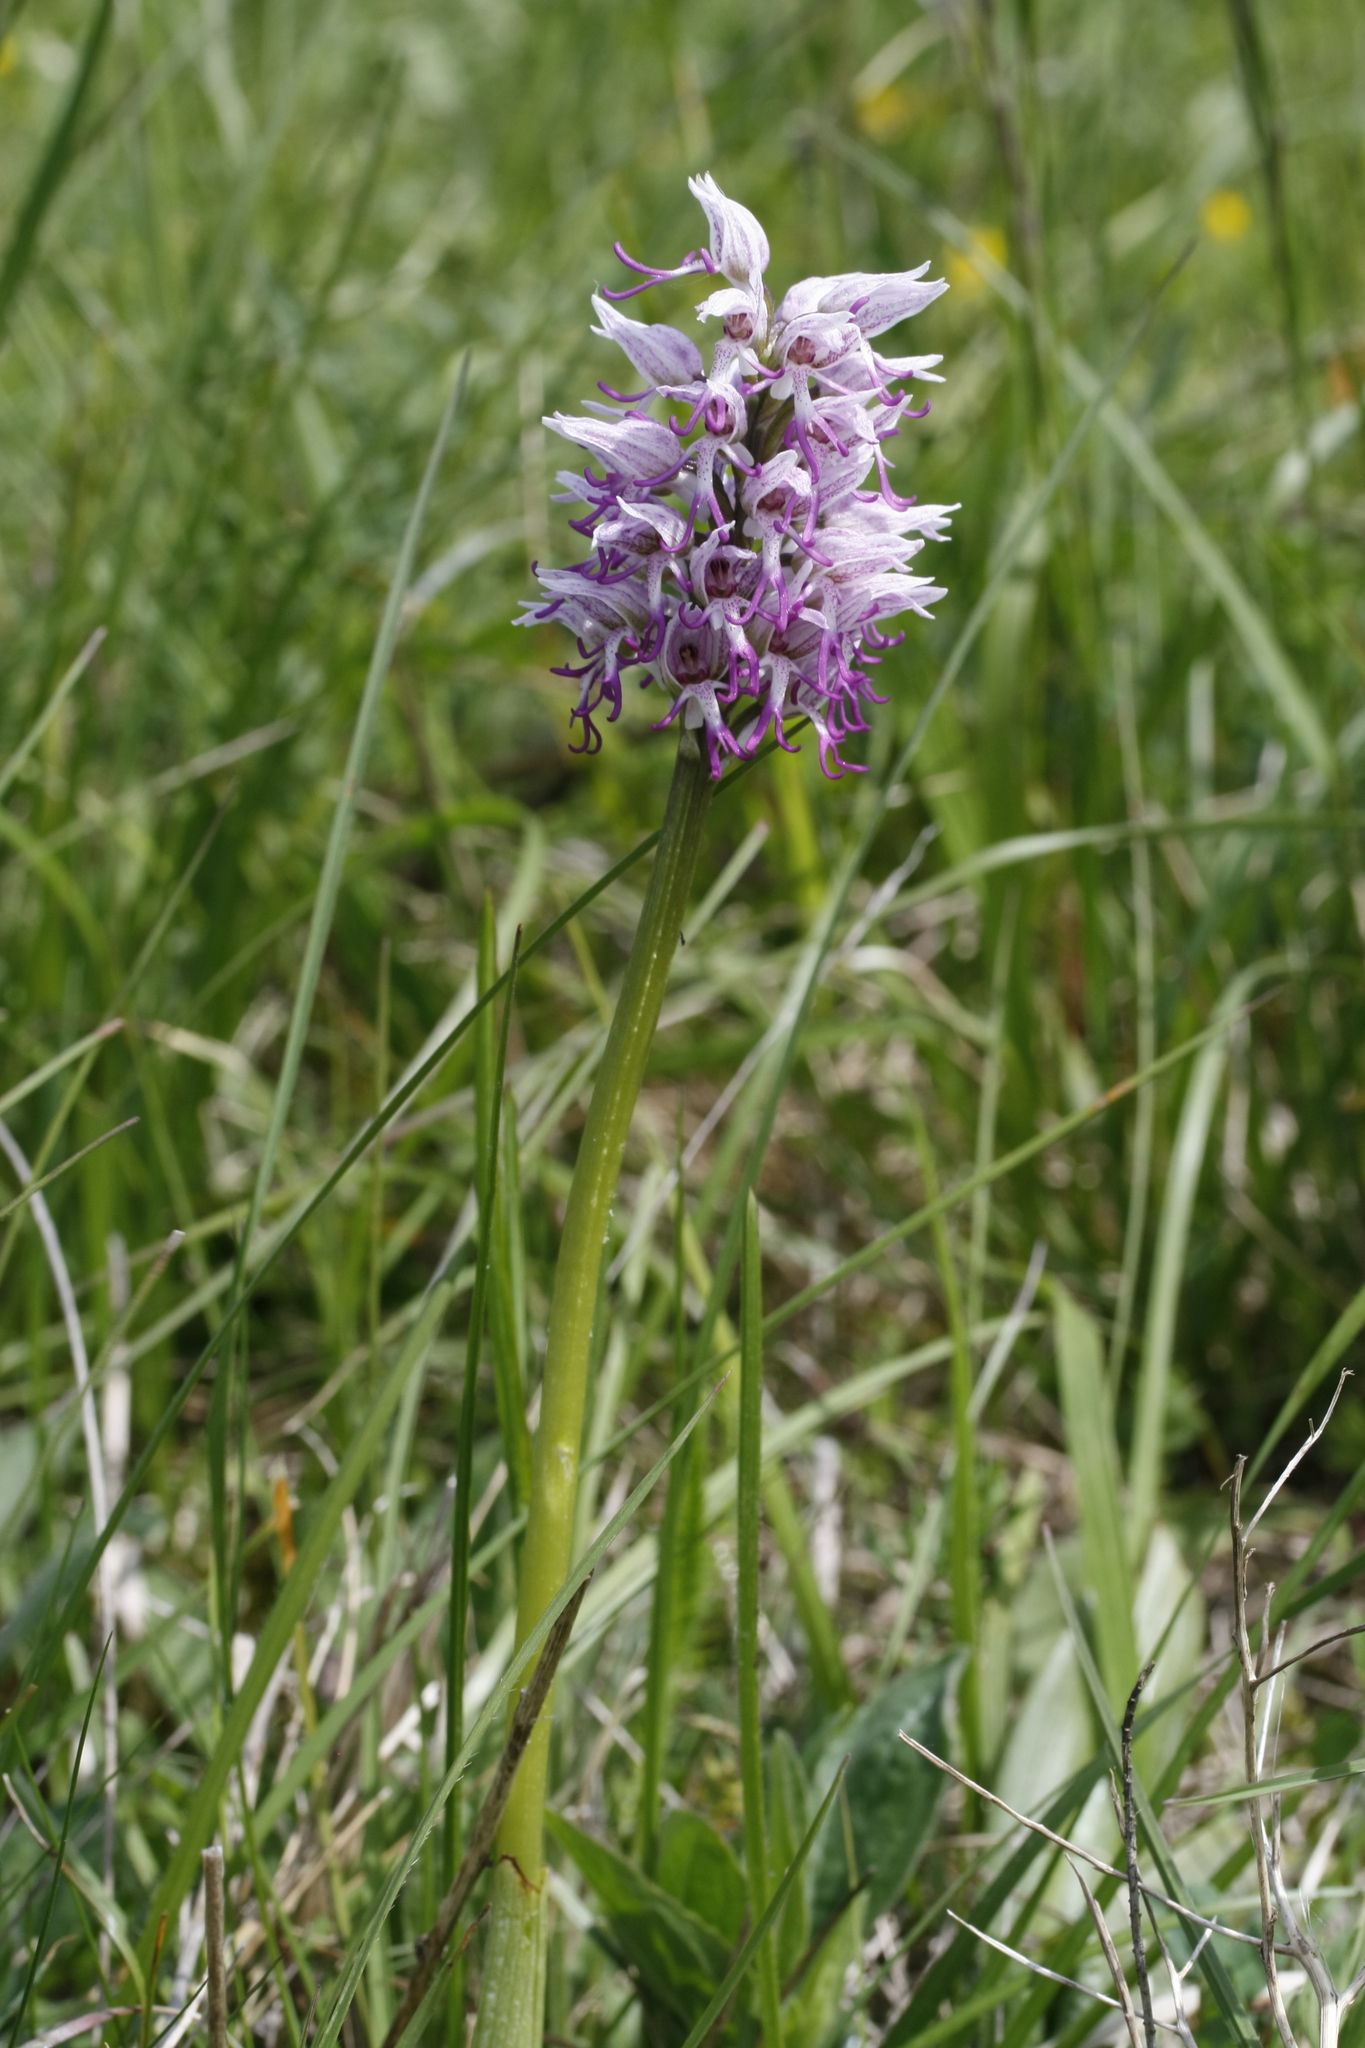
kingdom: Plantae
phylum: Tracheophyta
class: Liliopsida
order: Asparagales
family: Orchidaceae
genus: Orchis
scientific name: Orchis simia
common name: Monkey orchid
